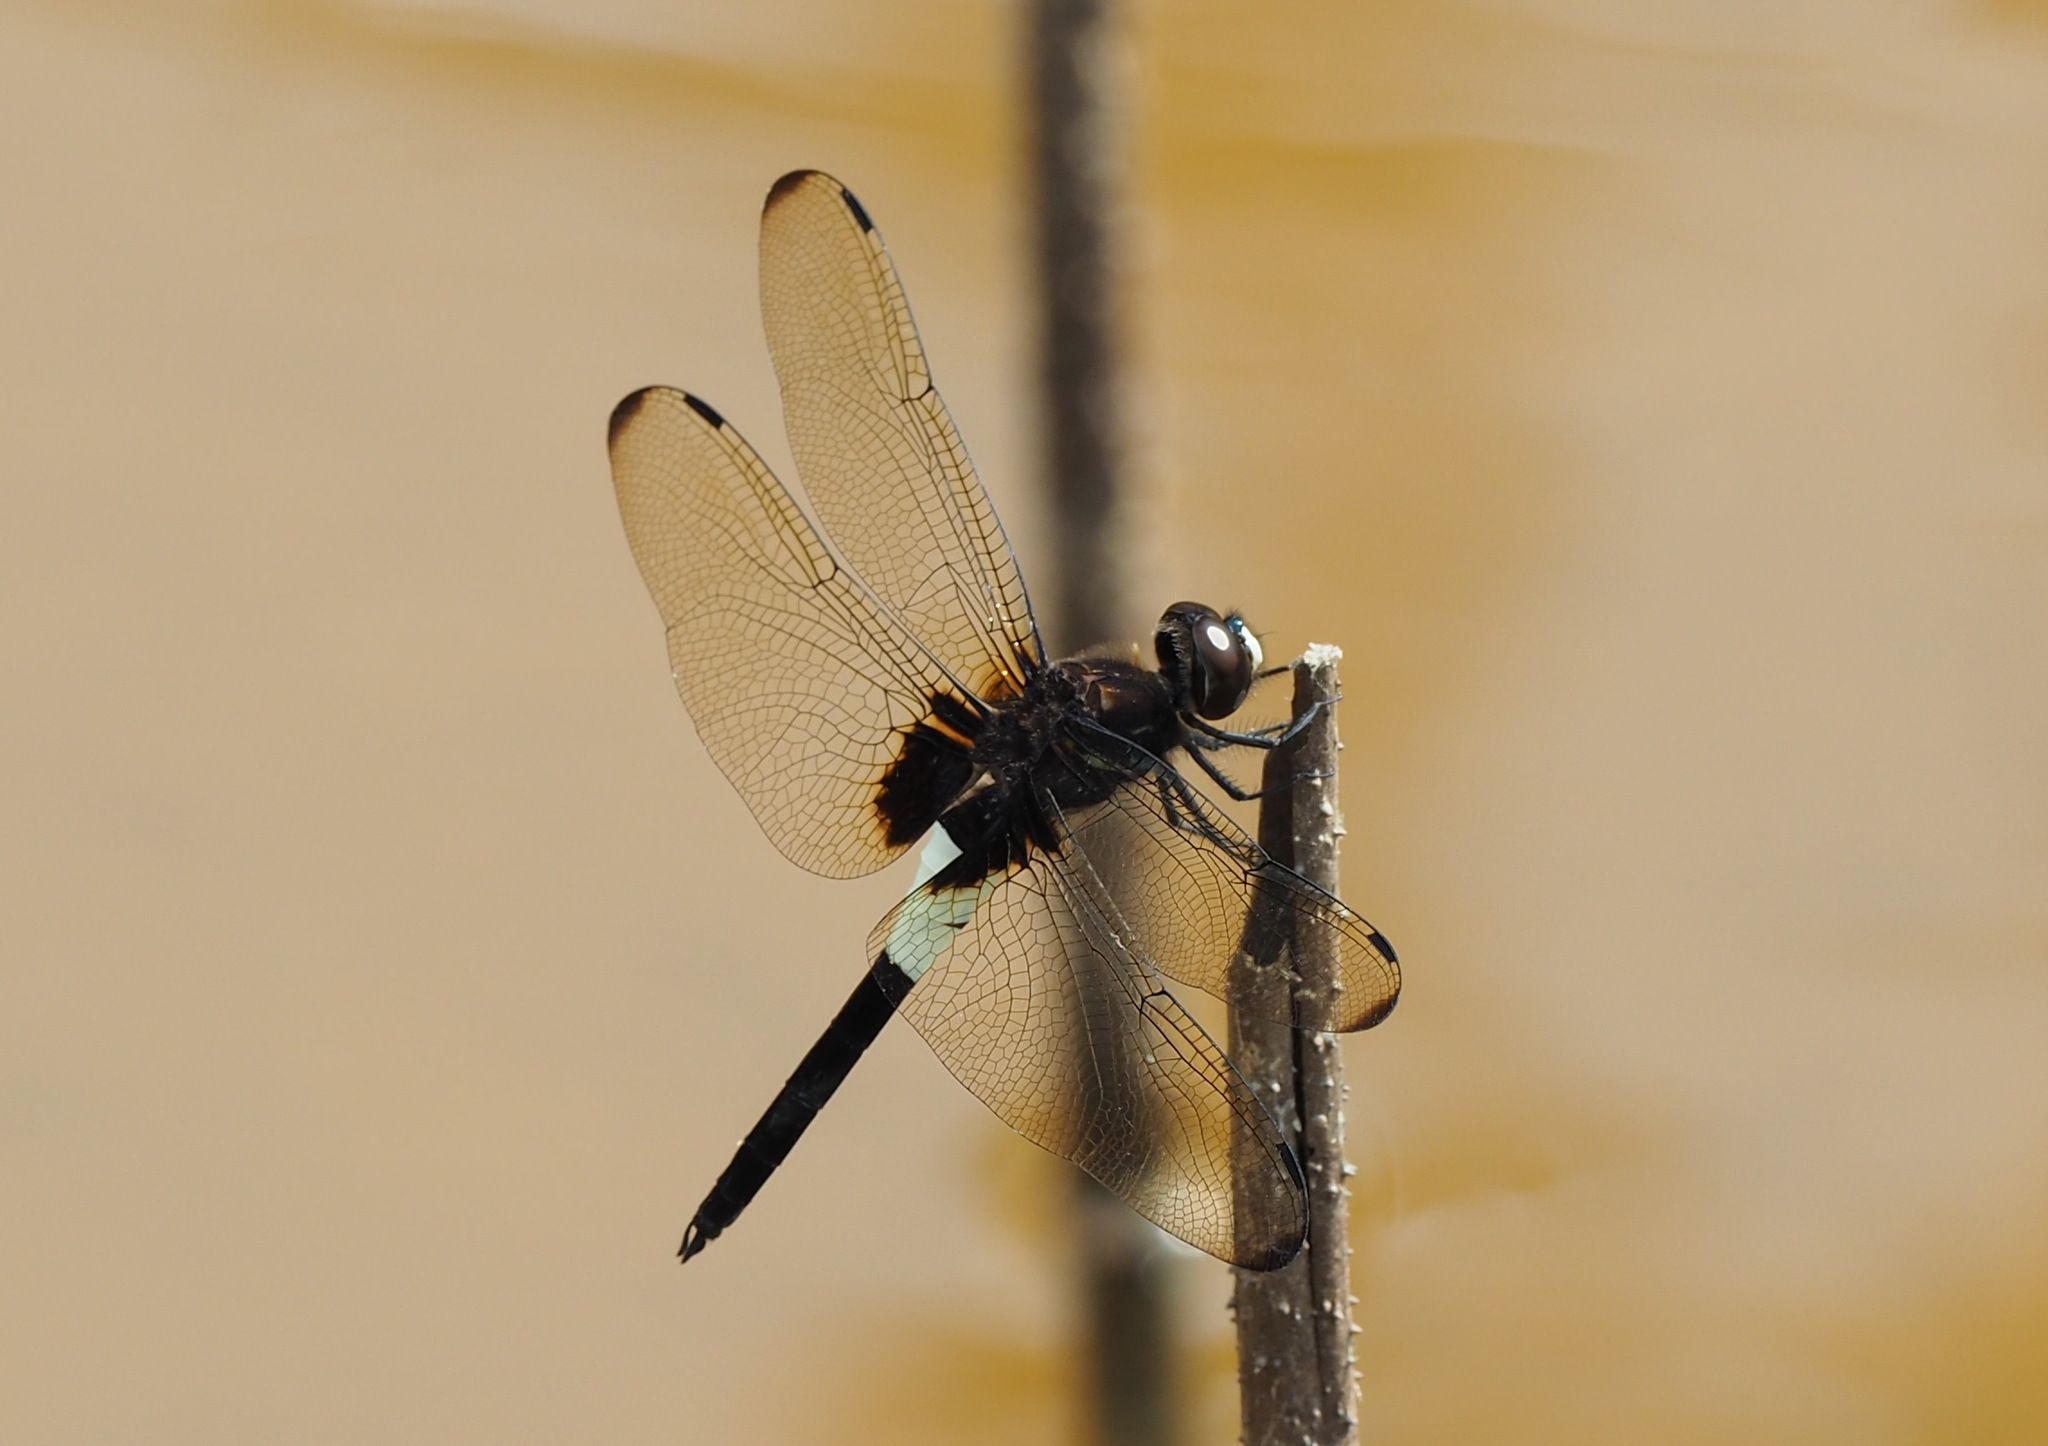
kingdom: Animalia
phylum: Arthropoda
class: Insecta
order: Odonata
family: Libellulidae
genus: Pseudothemis
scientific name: Pseudothemis zonata
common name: Pied skimmer
